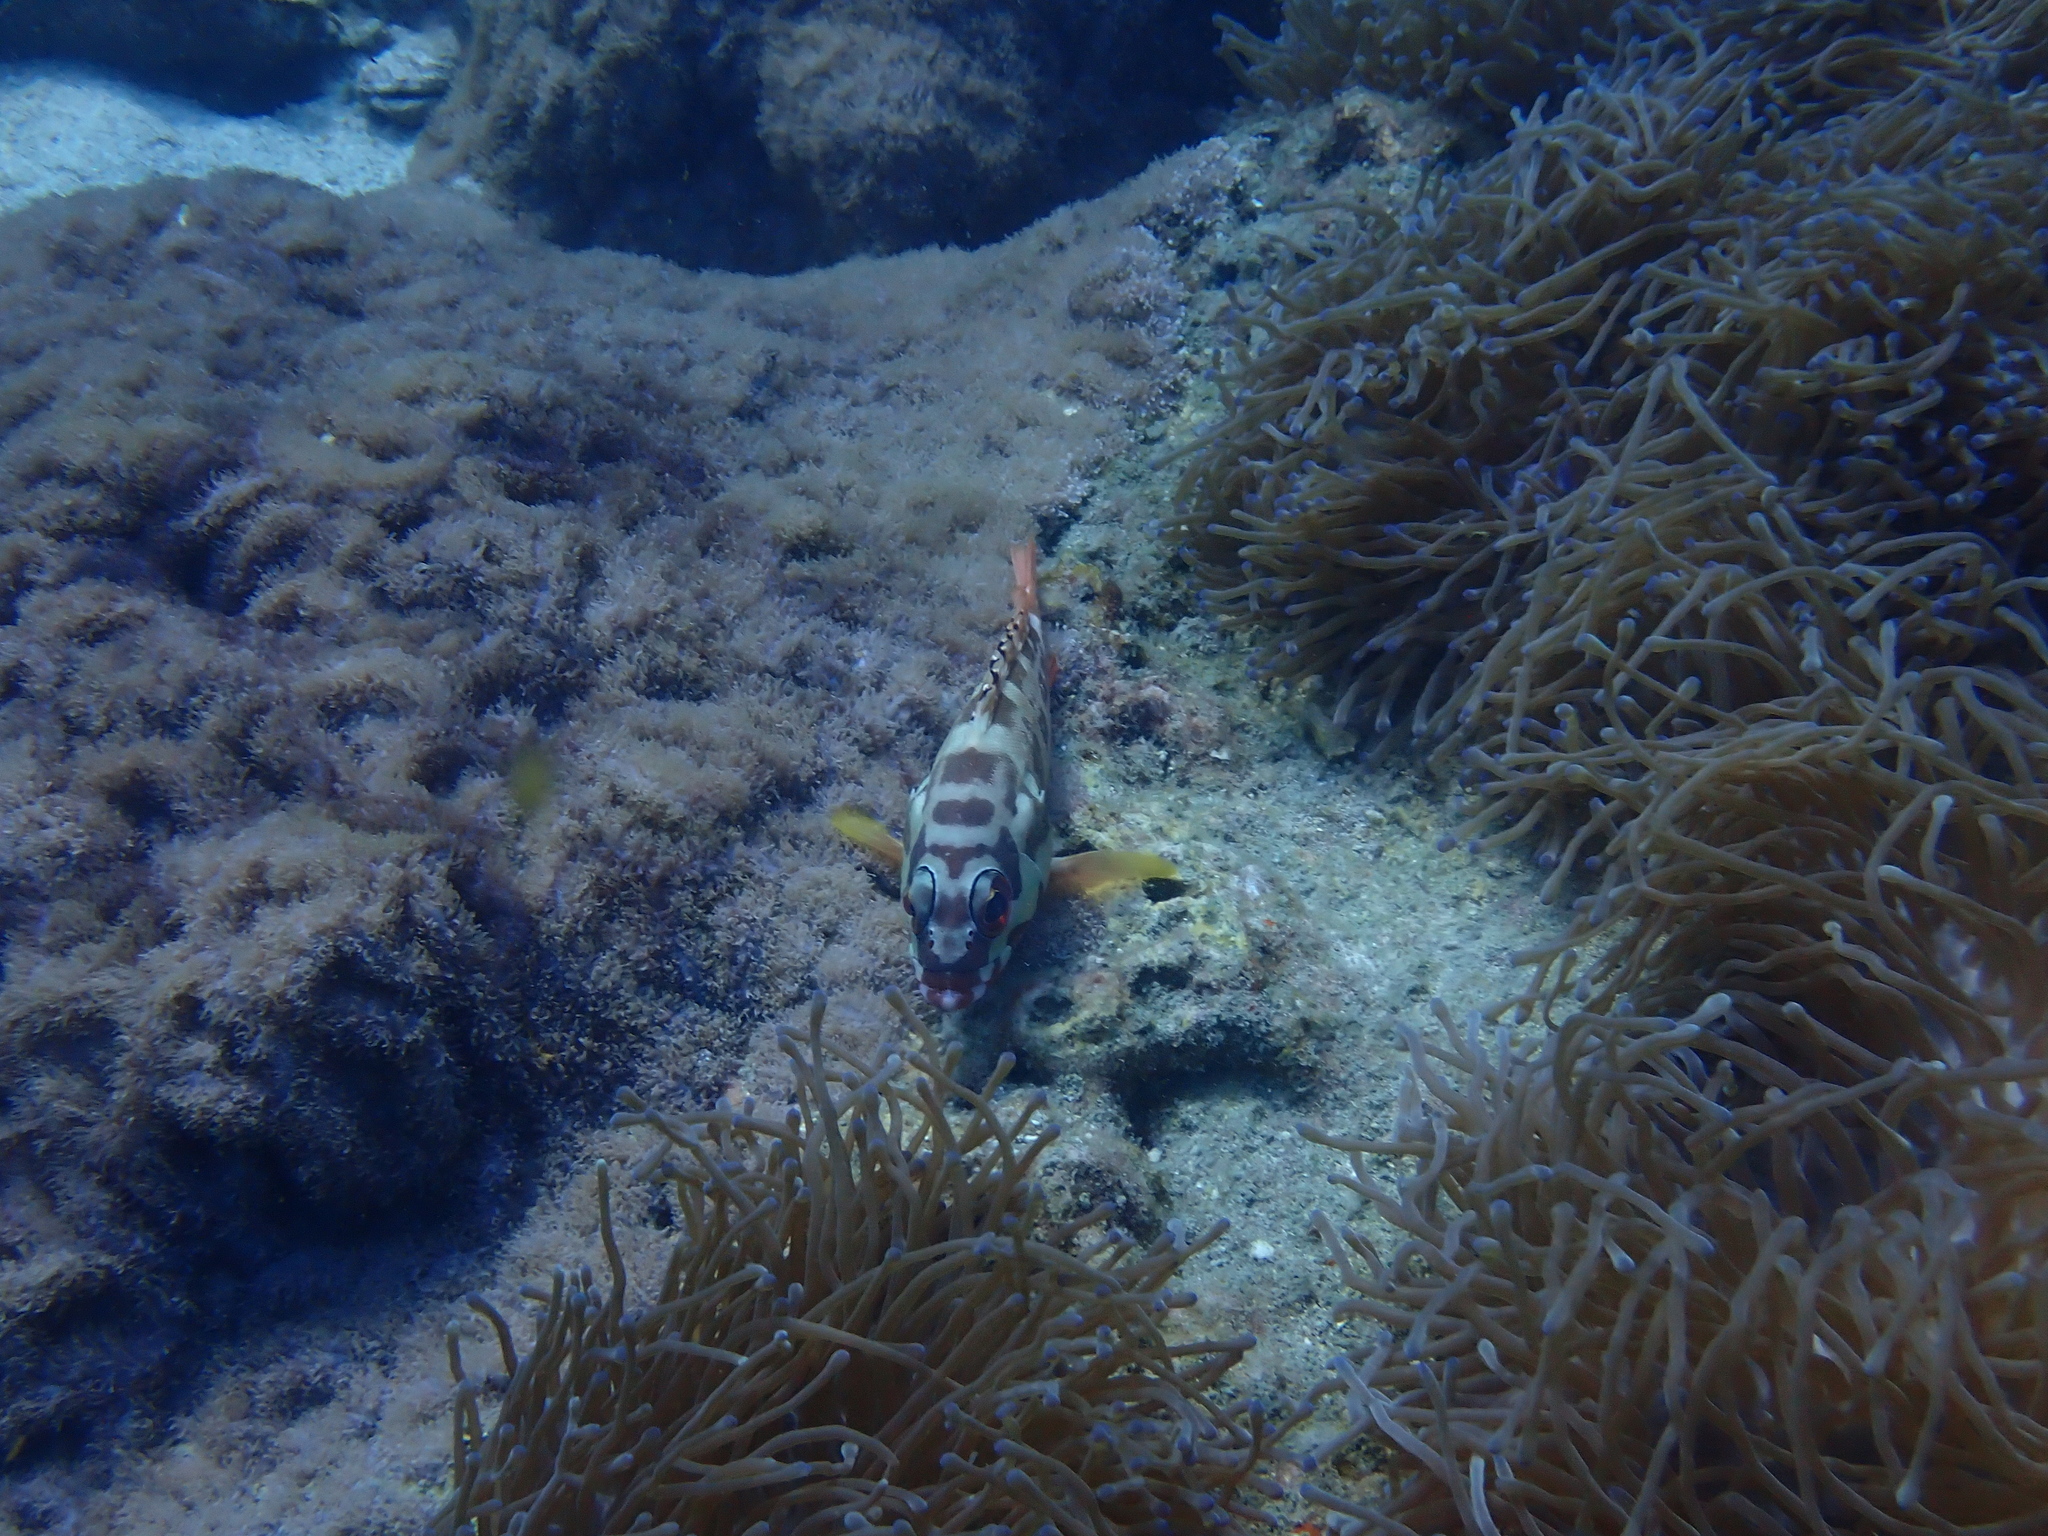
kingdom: Animalia
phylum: Chordata
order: Perciformes
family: Serranidae
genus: Epinephelus
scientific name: Epinephelus fasciatus
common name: Blacktip grouper
